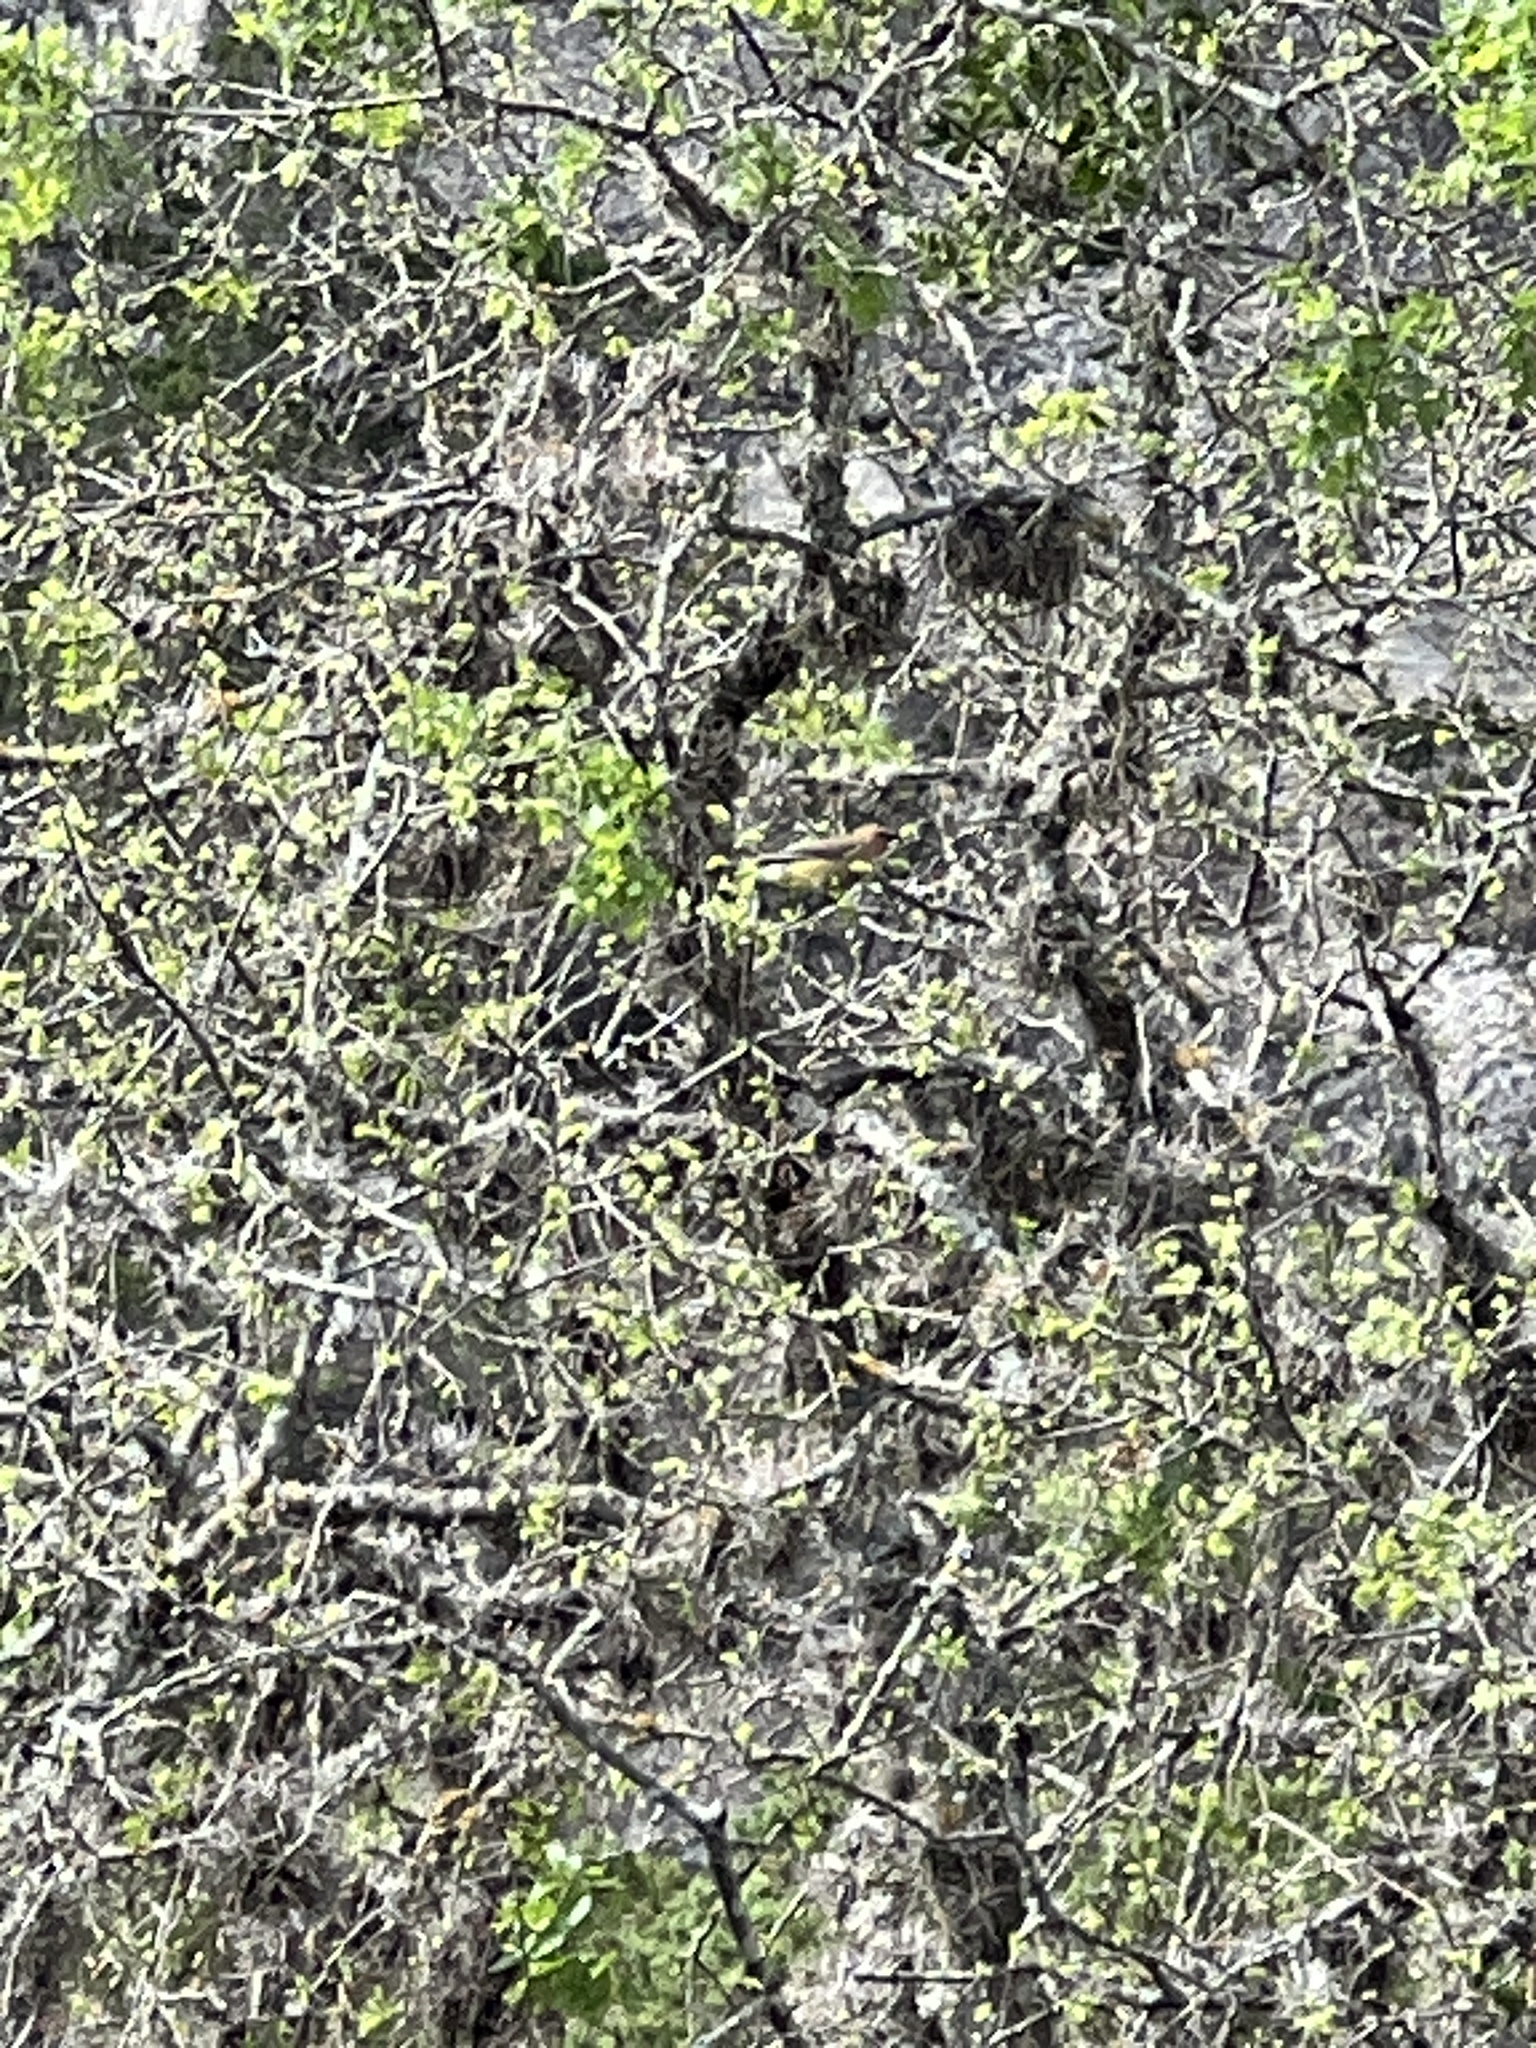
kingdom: Animalia
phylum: Chordata
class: Aves
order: Passeriformes
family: Bombycillidae
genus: Bombycilla
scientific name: Bombycilla cedrorum
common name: Cedar waxwing
